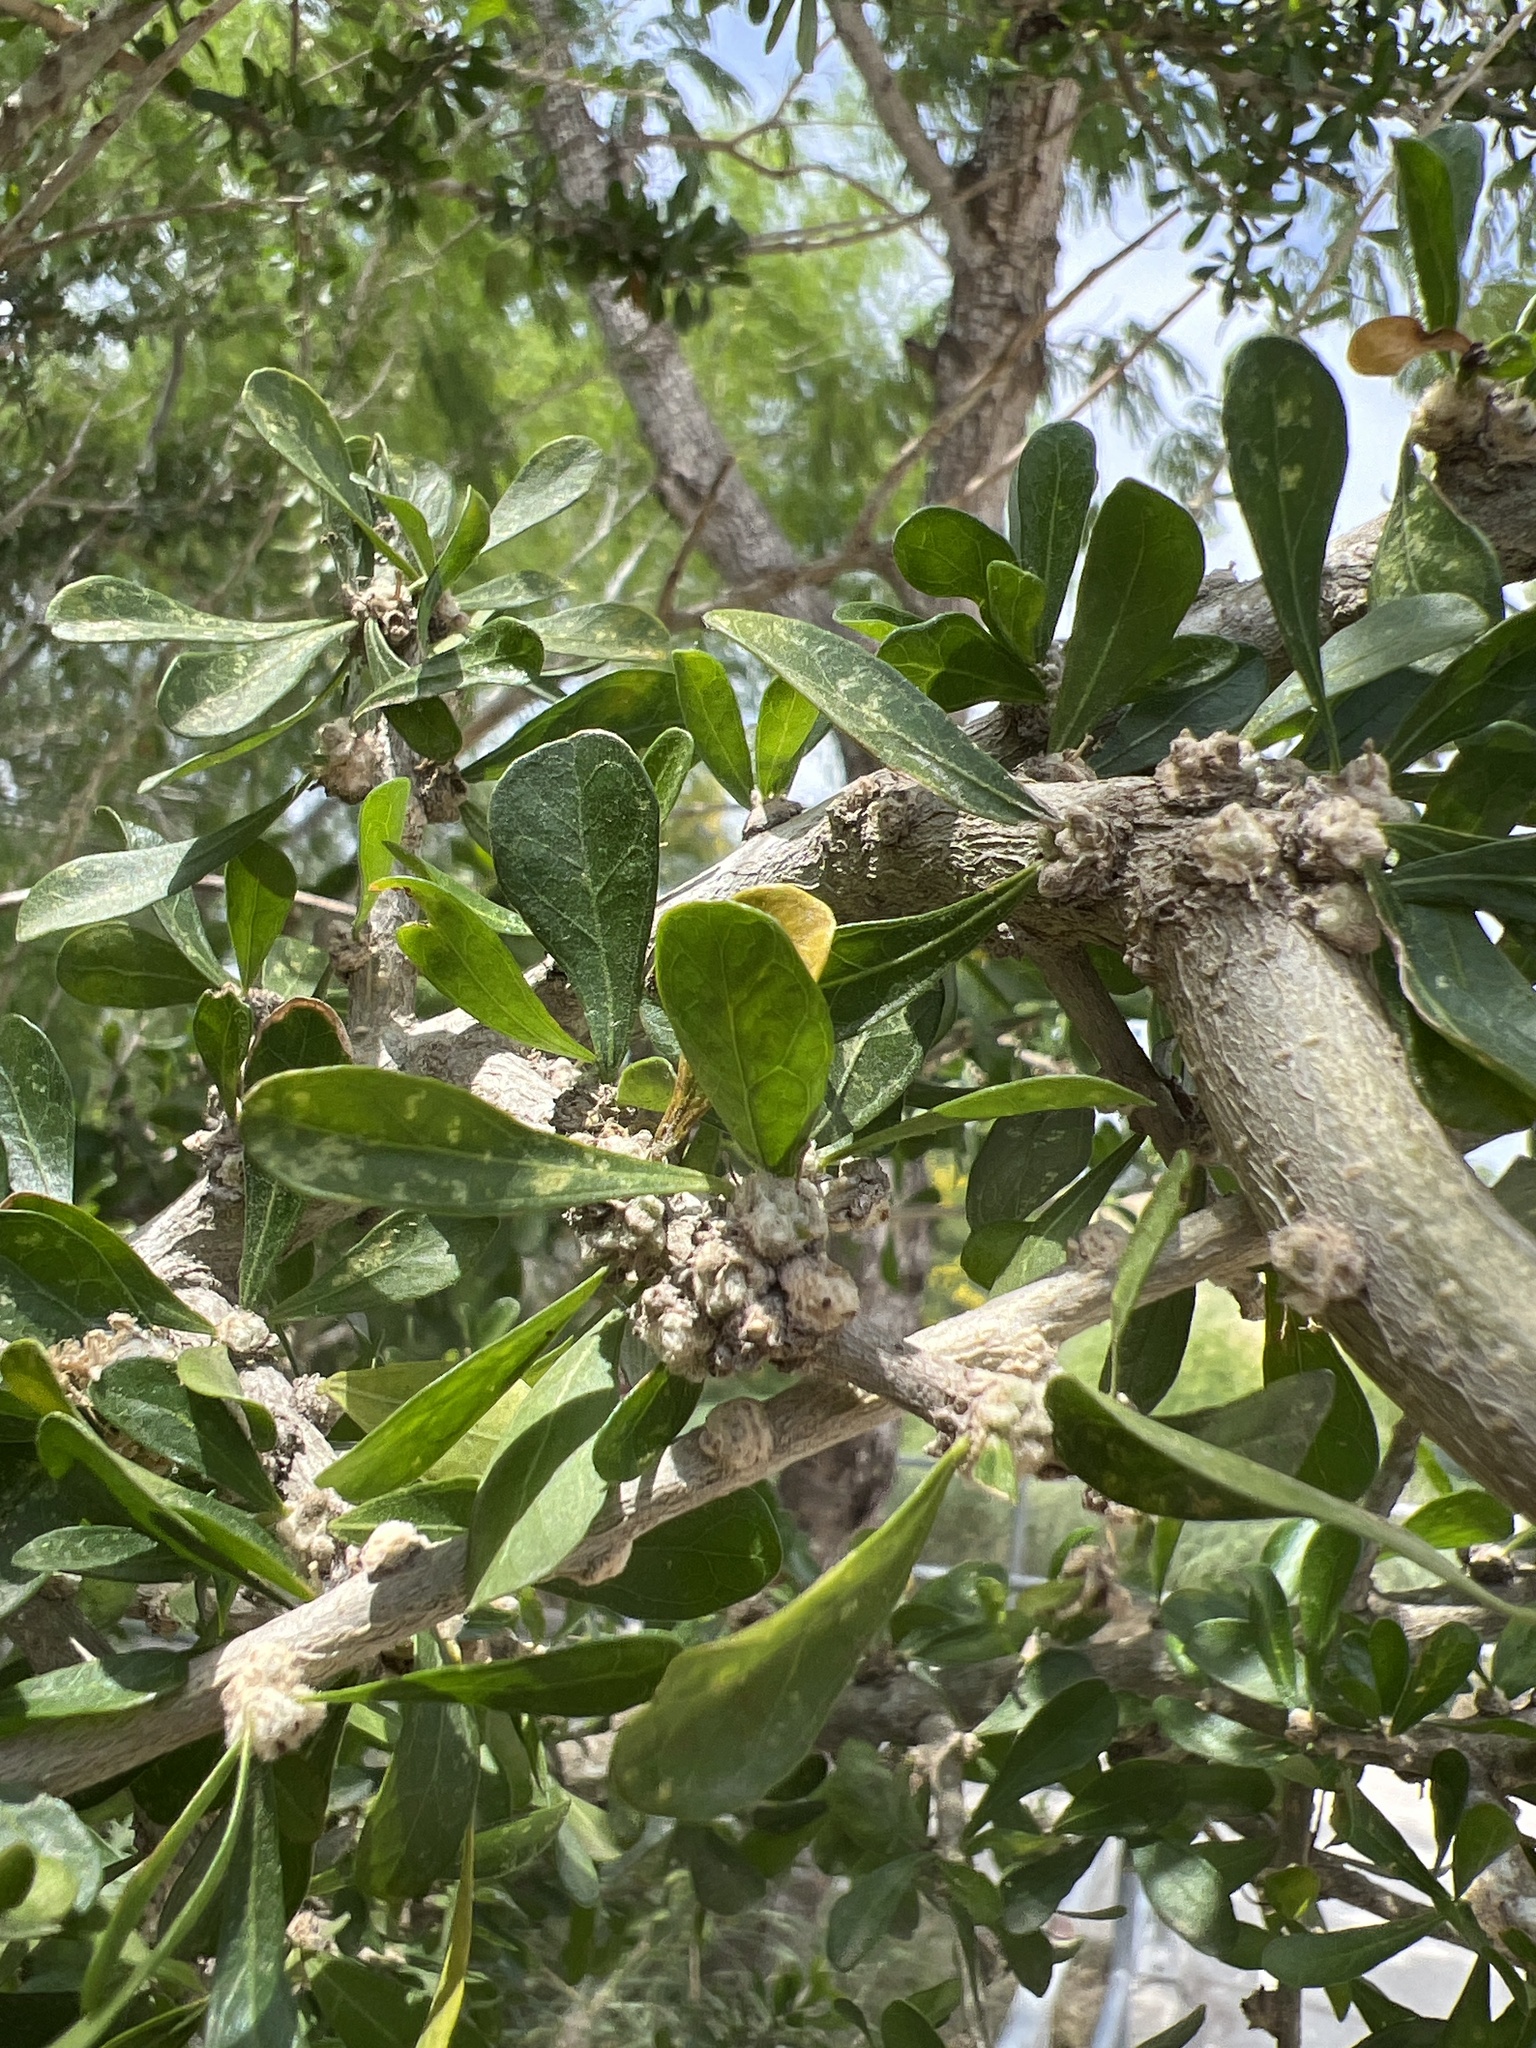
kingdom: Plantae
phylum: Tracheophyta
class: Magnoliopsida
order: Malpighiales
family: Euphorbiaceae
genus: Adelia
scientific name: Adelia vaseyi
